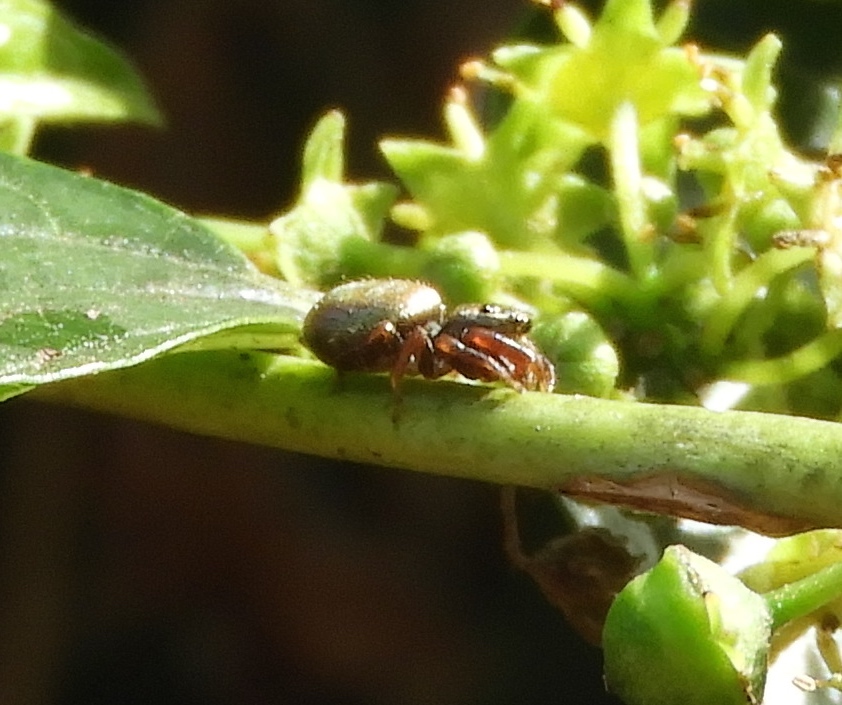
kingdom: Animalia
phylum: Arthropoda
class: Arachnida
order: Araneae
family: Salticidae
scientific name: Salticidae
